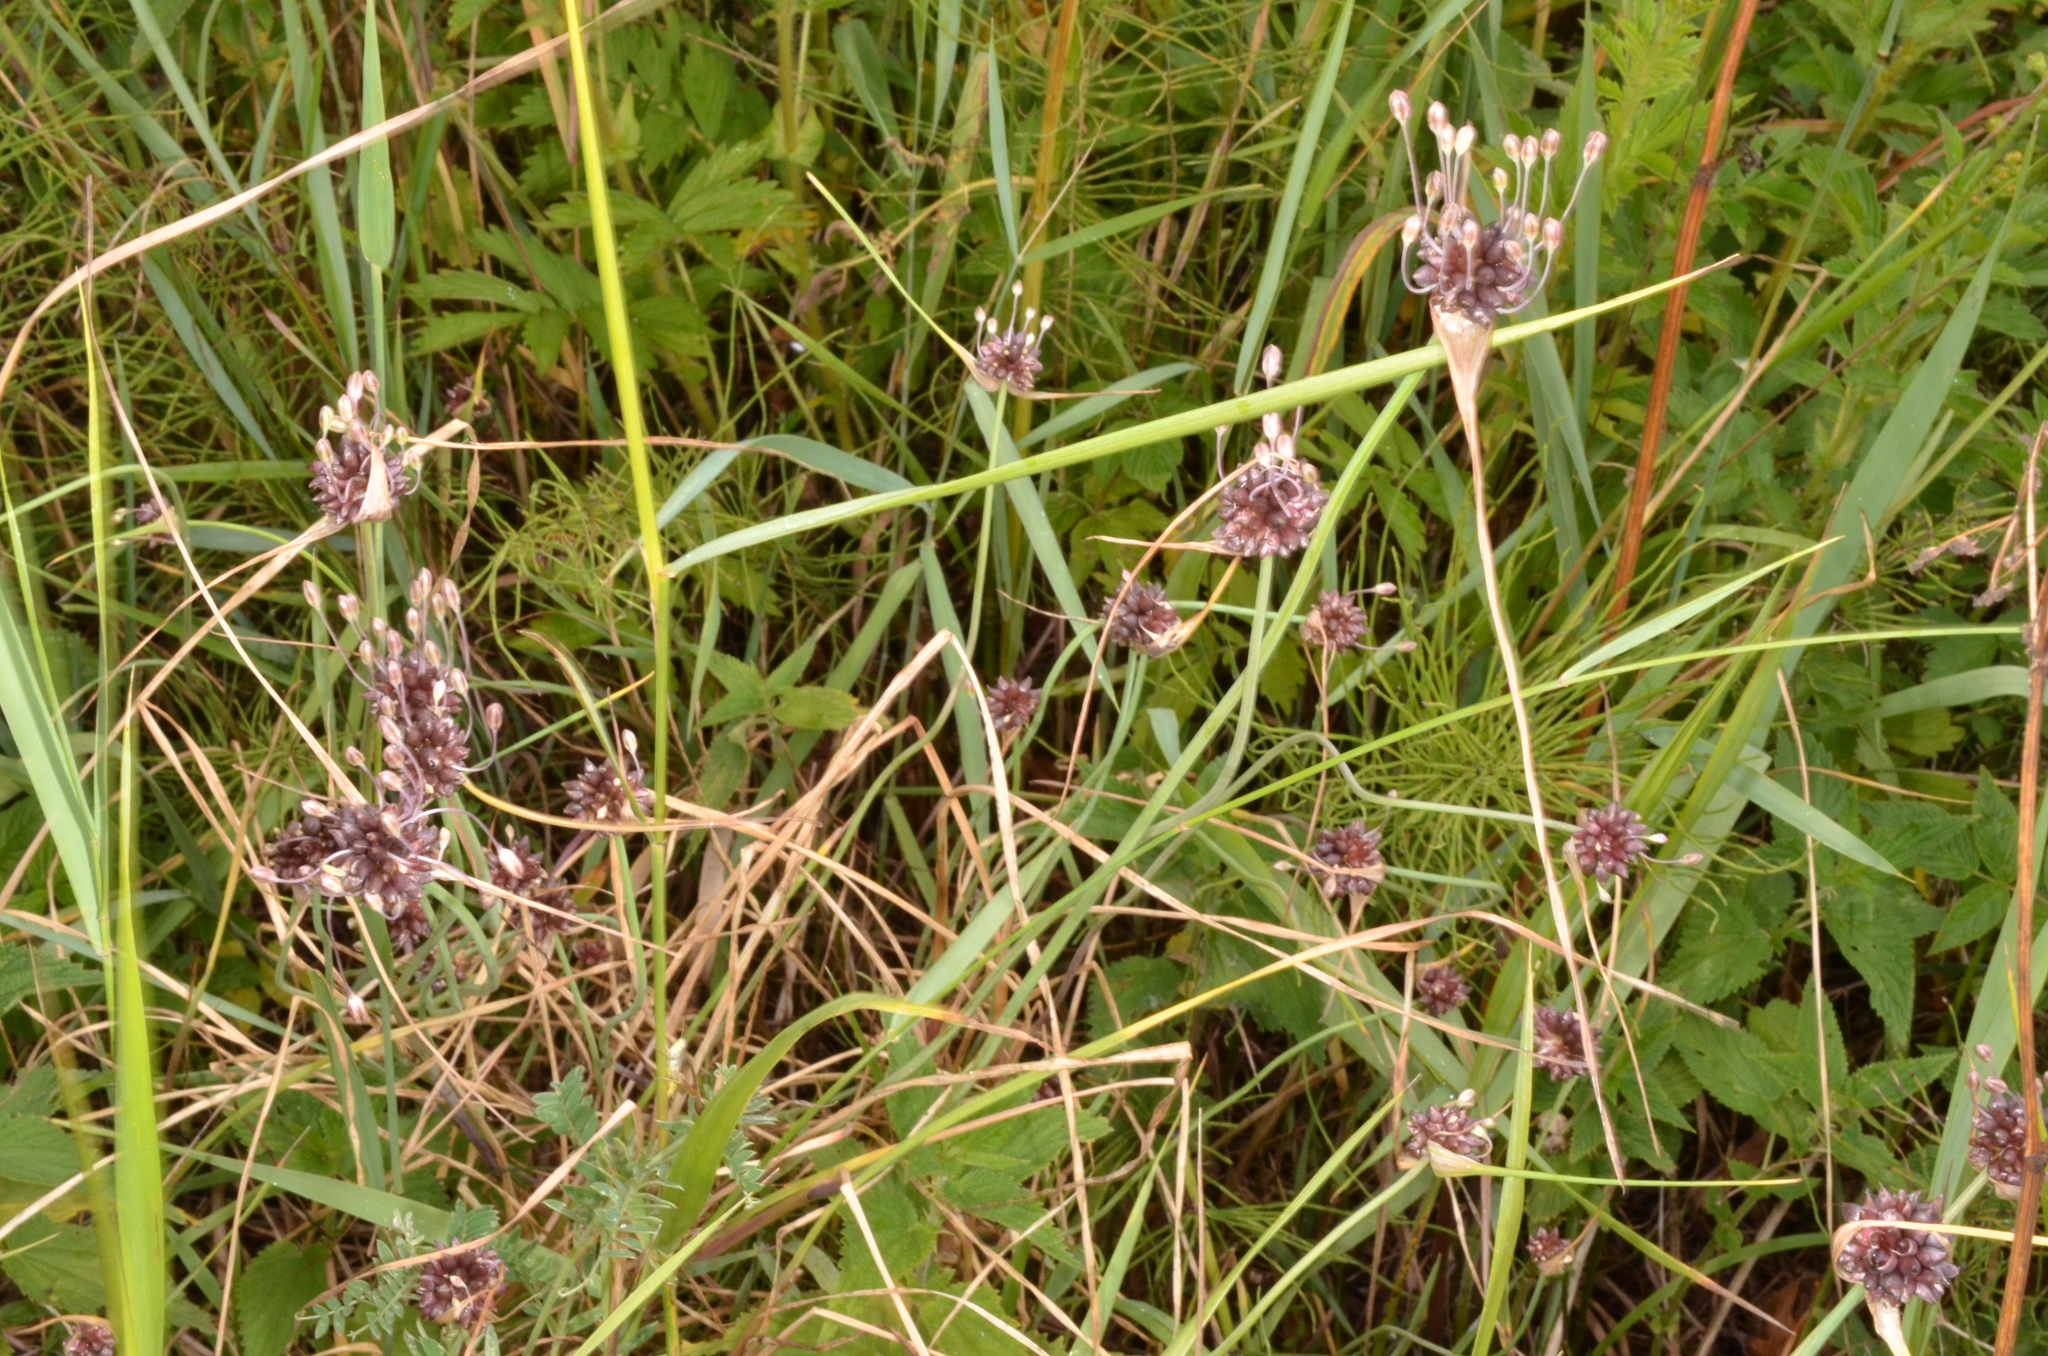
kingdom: Plantae
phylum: Tracheophyta
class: Liliopsida
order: Asparagales
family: Amaryllidaceae
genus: Allium
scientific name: Allium oleraceum
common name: Field garlic
